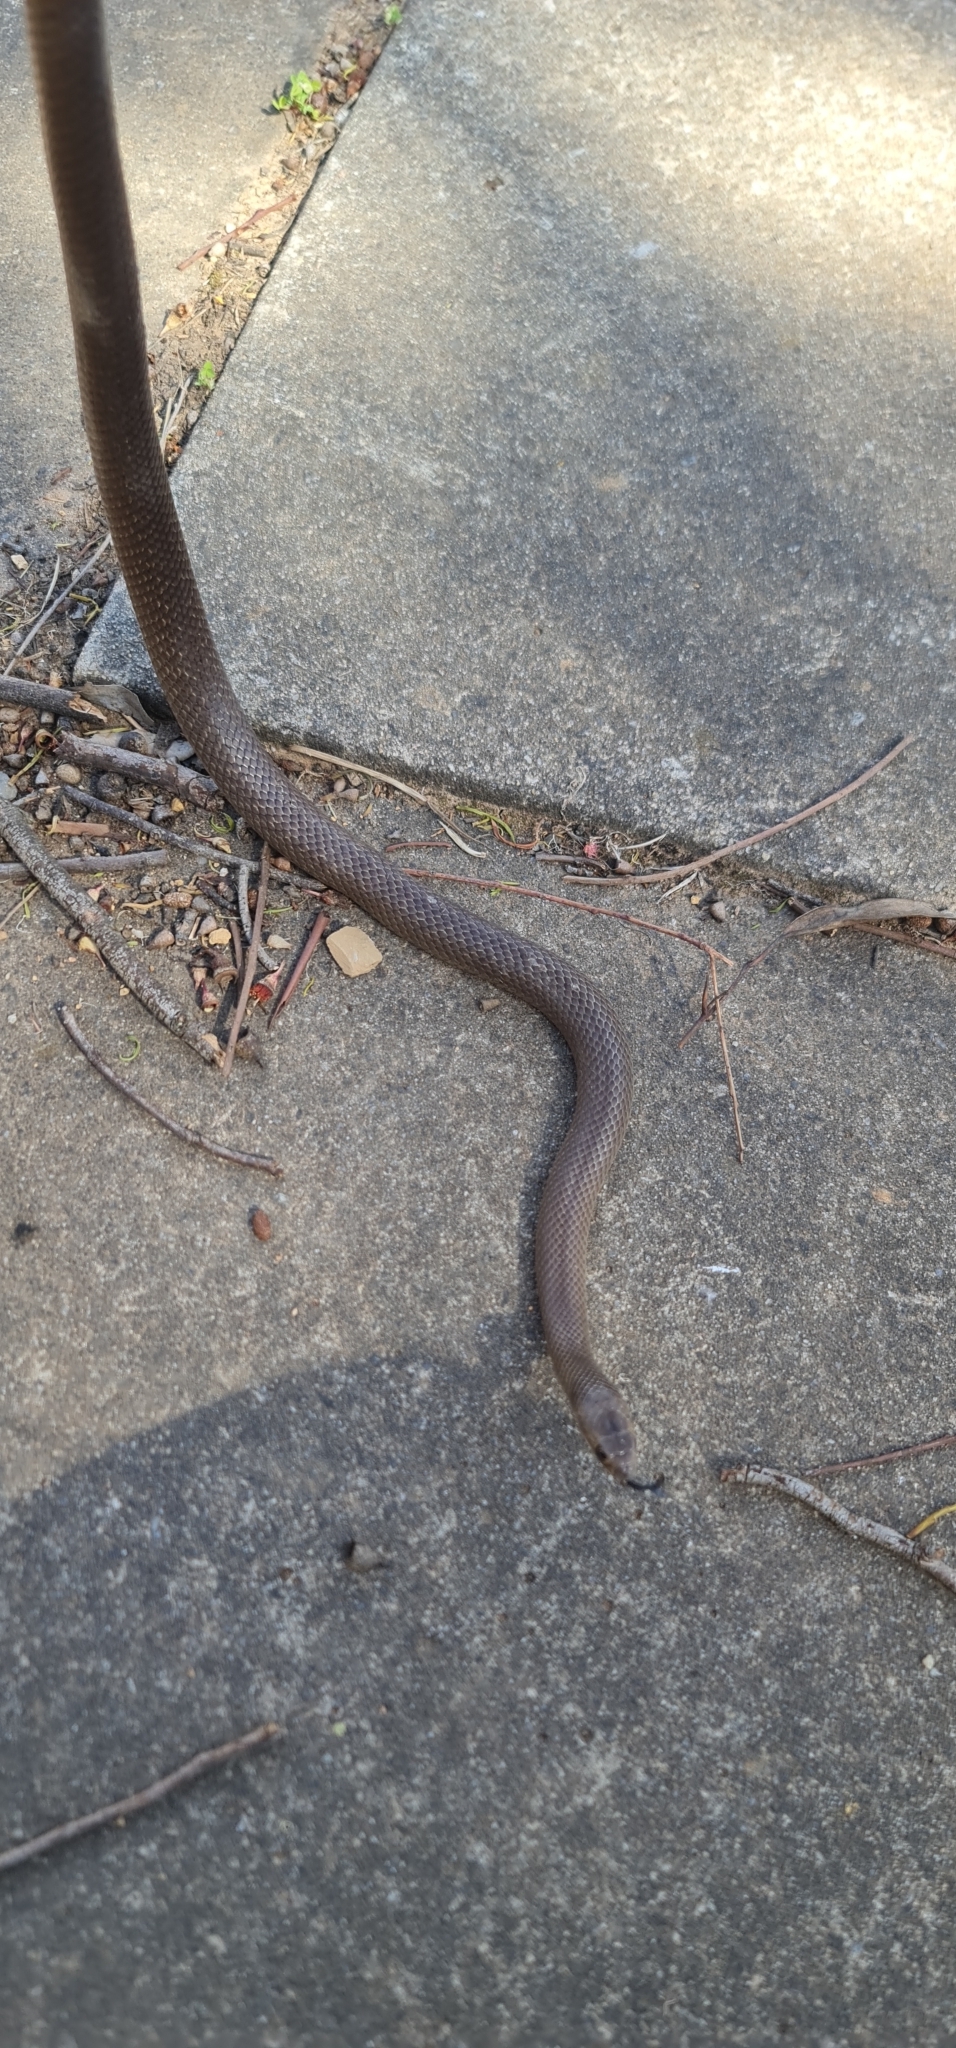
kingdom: Animalia
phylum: Chordata
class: Squamata
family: Elapidae
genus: Pseudonaja
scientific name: Pseudonaja textilis
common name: Eastern brown snake
